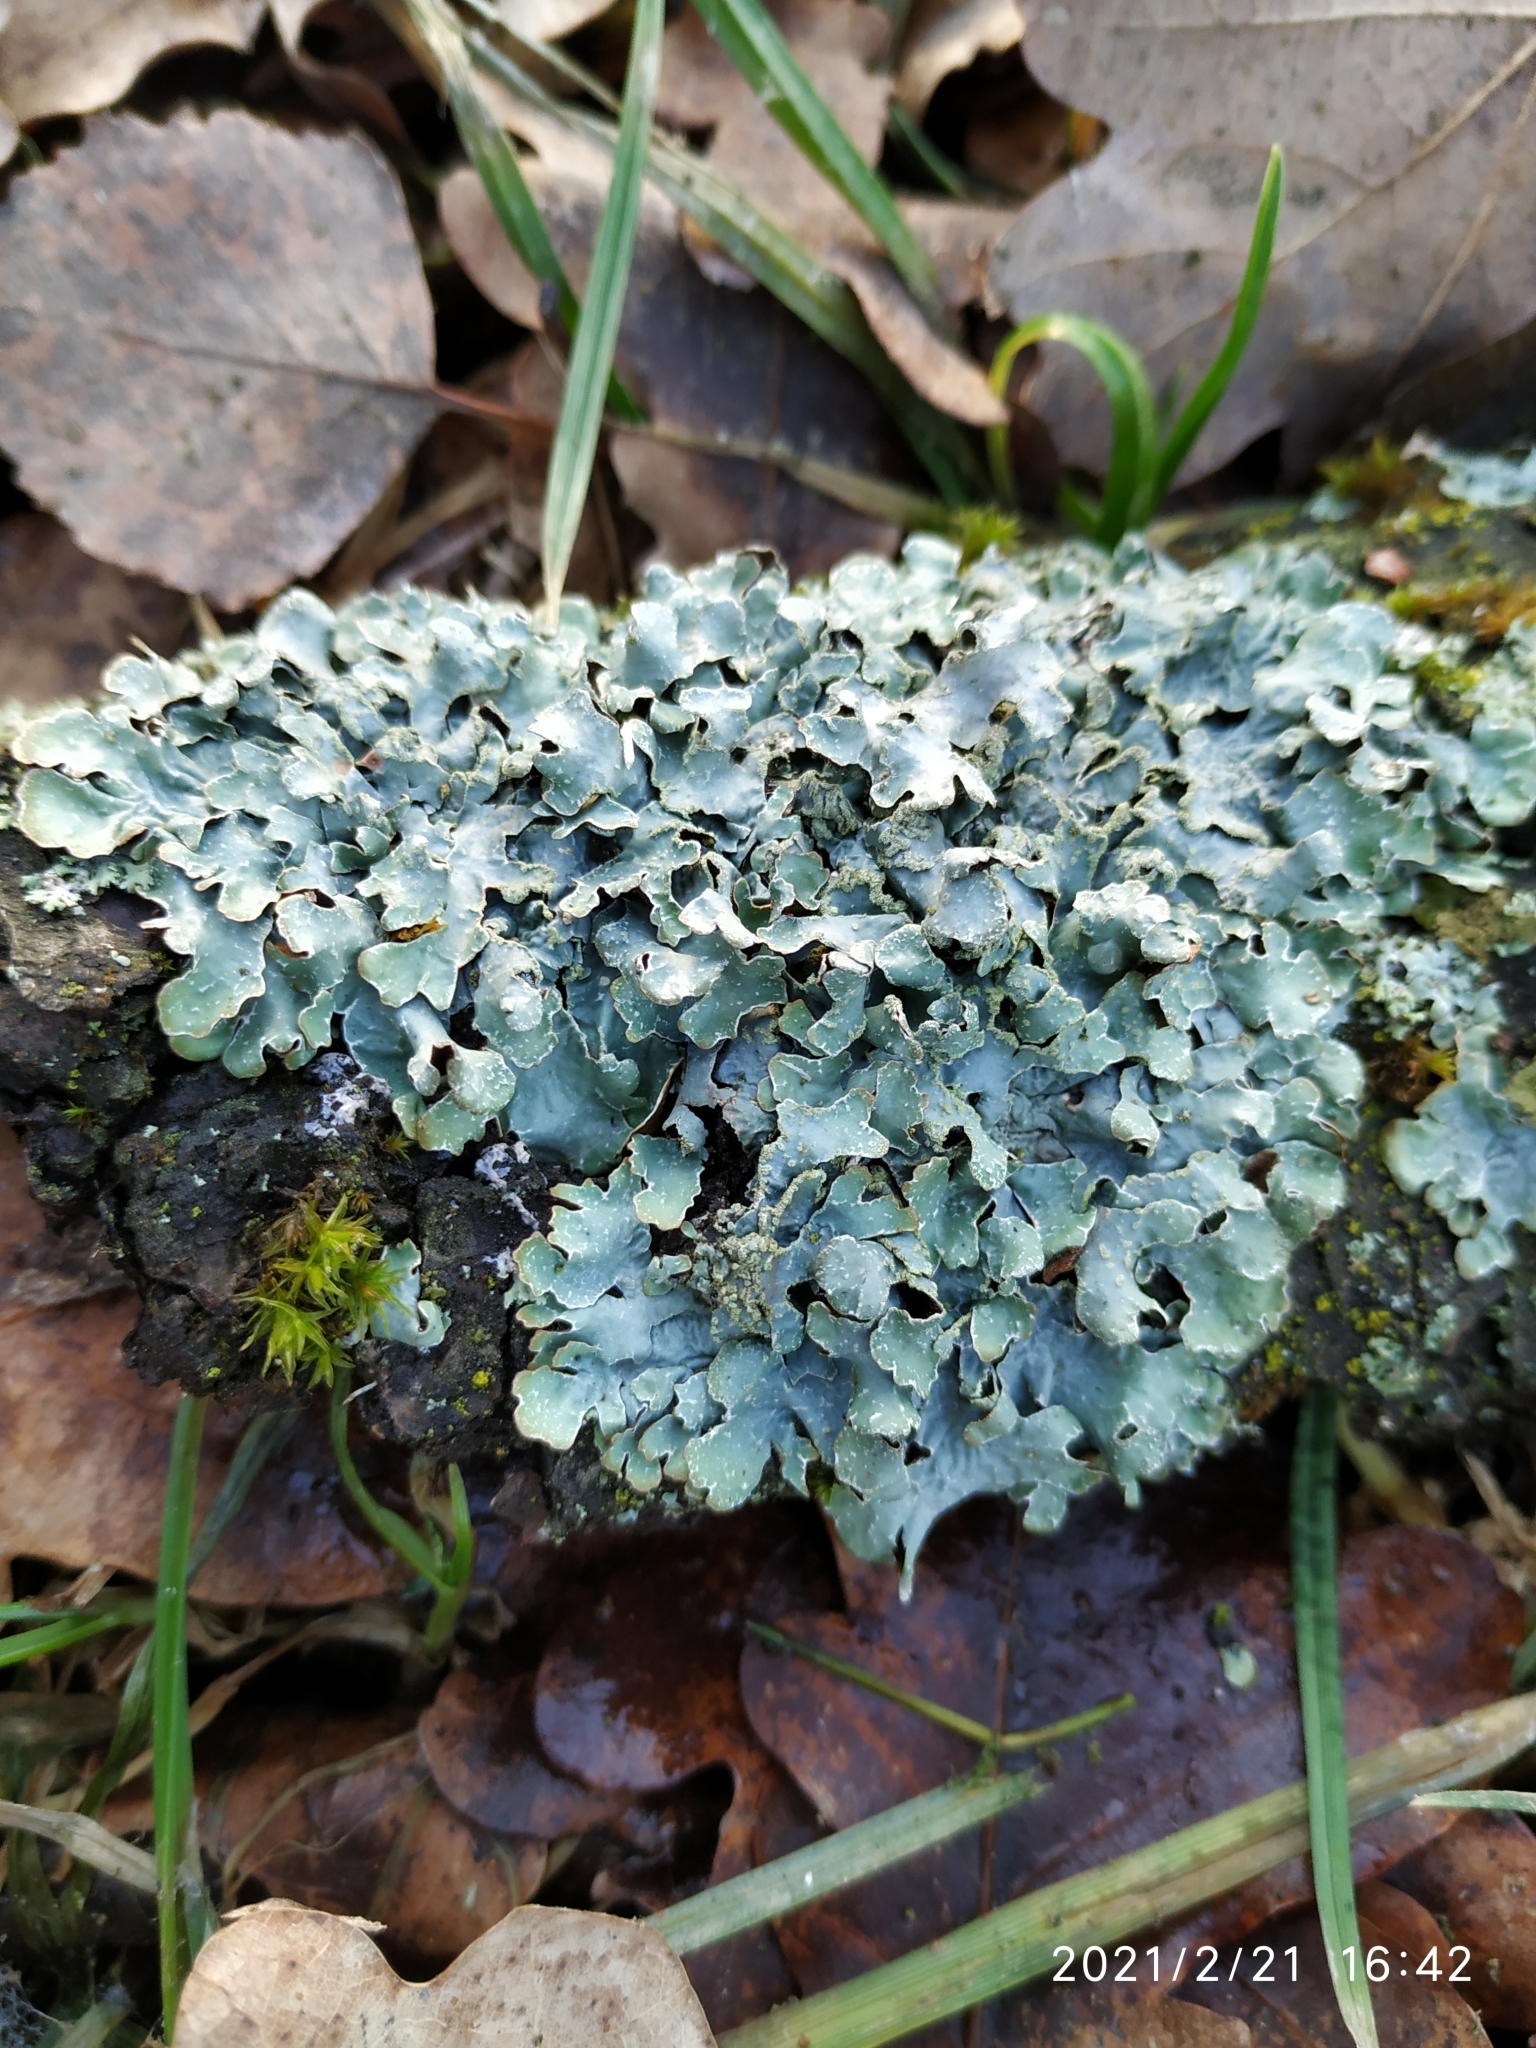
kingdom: Fungi
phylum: Ascomycota
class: Lecanoromycetes
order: Lecanorales
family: Parmeliaceae
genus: Parmelia
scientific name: Parmelia sulcata
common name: Netted shield lichen
